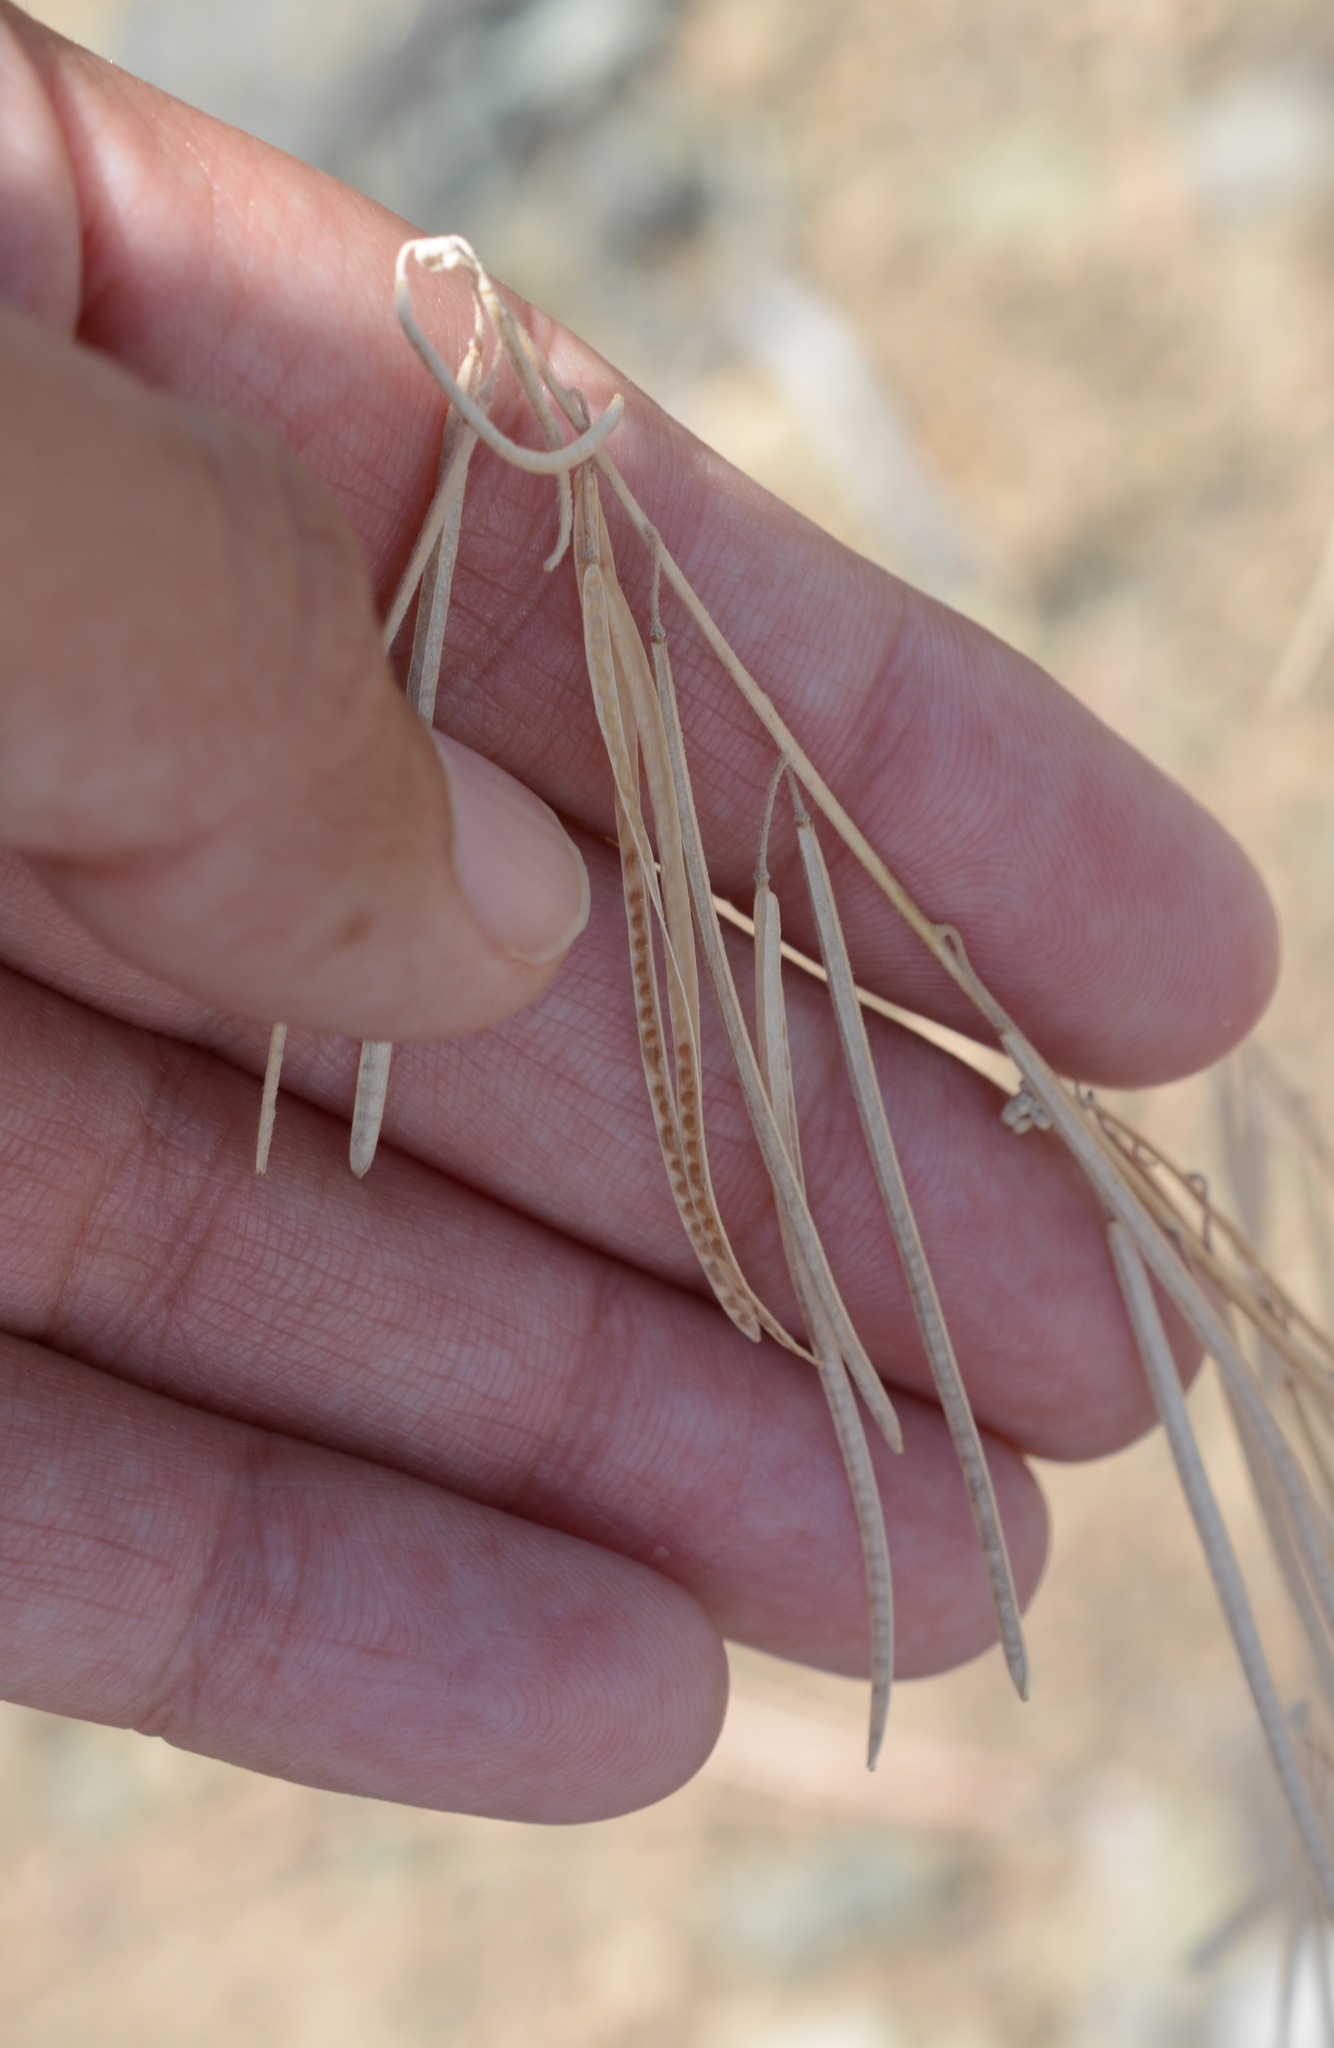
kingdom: Plantae
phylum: Tracheophyta
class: Magnoliopsida
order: Brassicales
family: Brassicaceae
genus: Boechera
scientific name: Boechera retrofracta
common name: Dangling suncress
